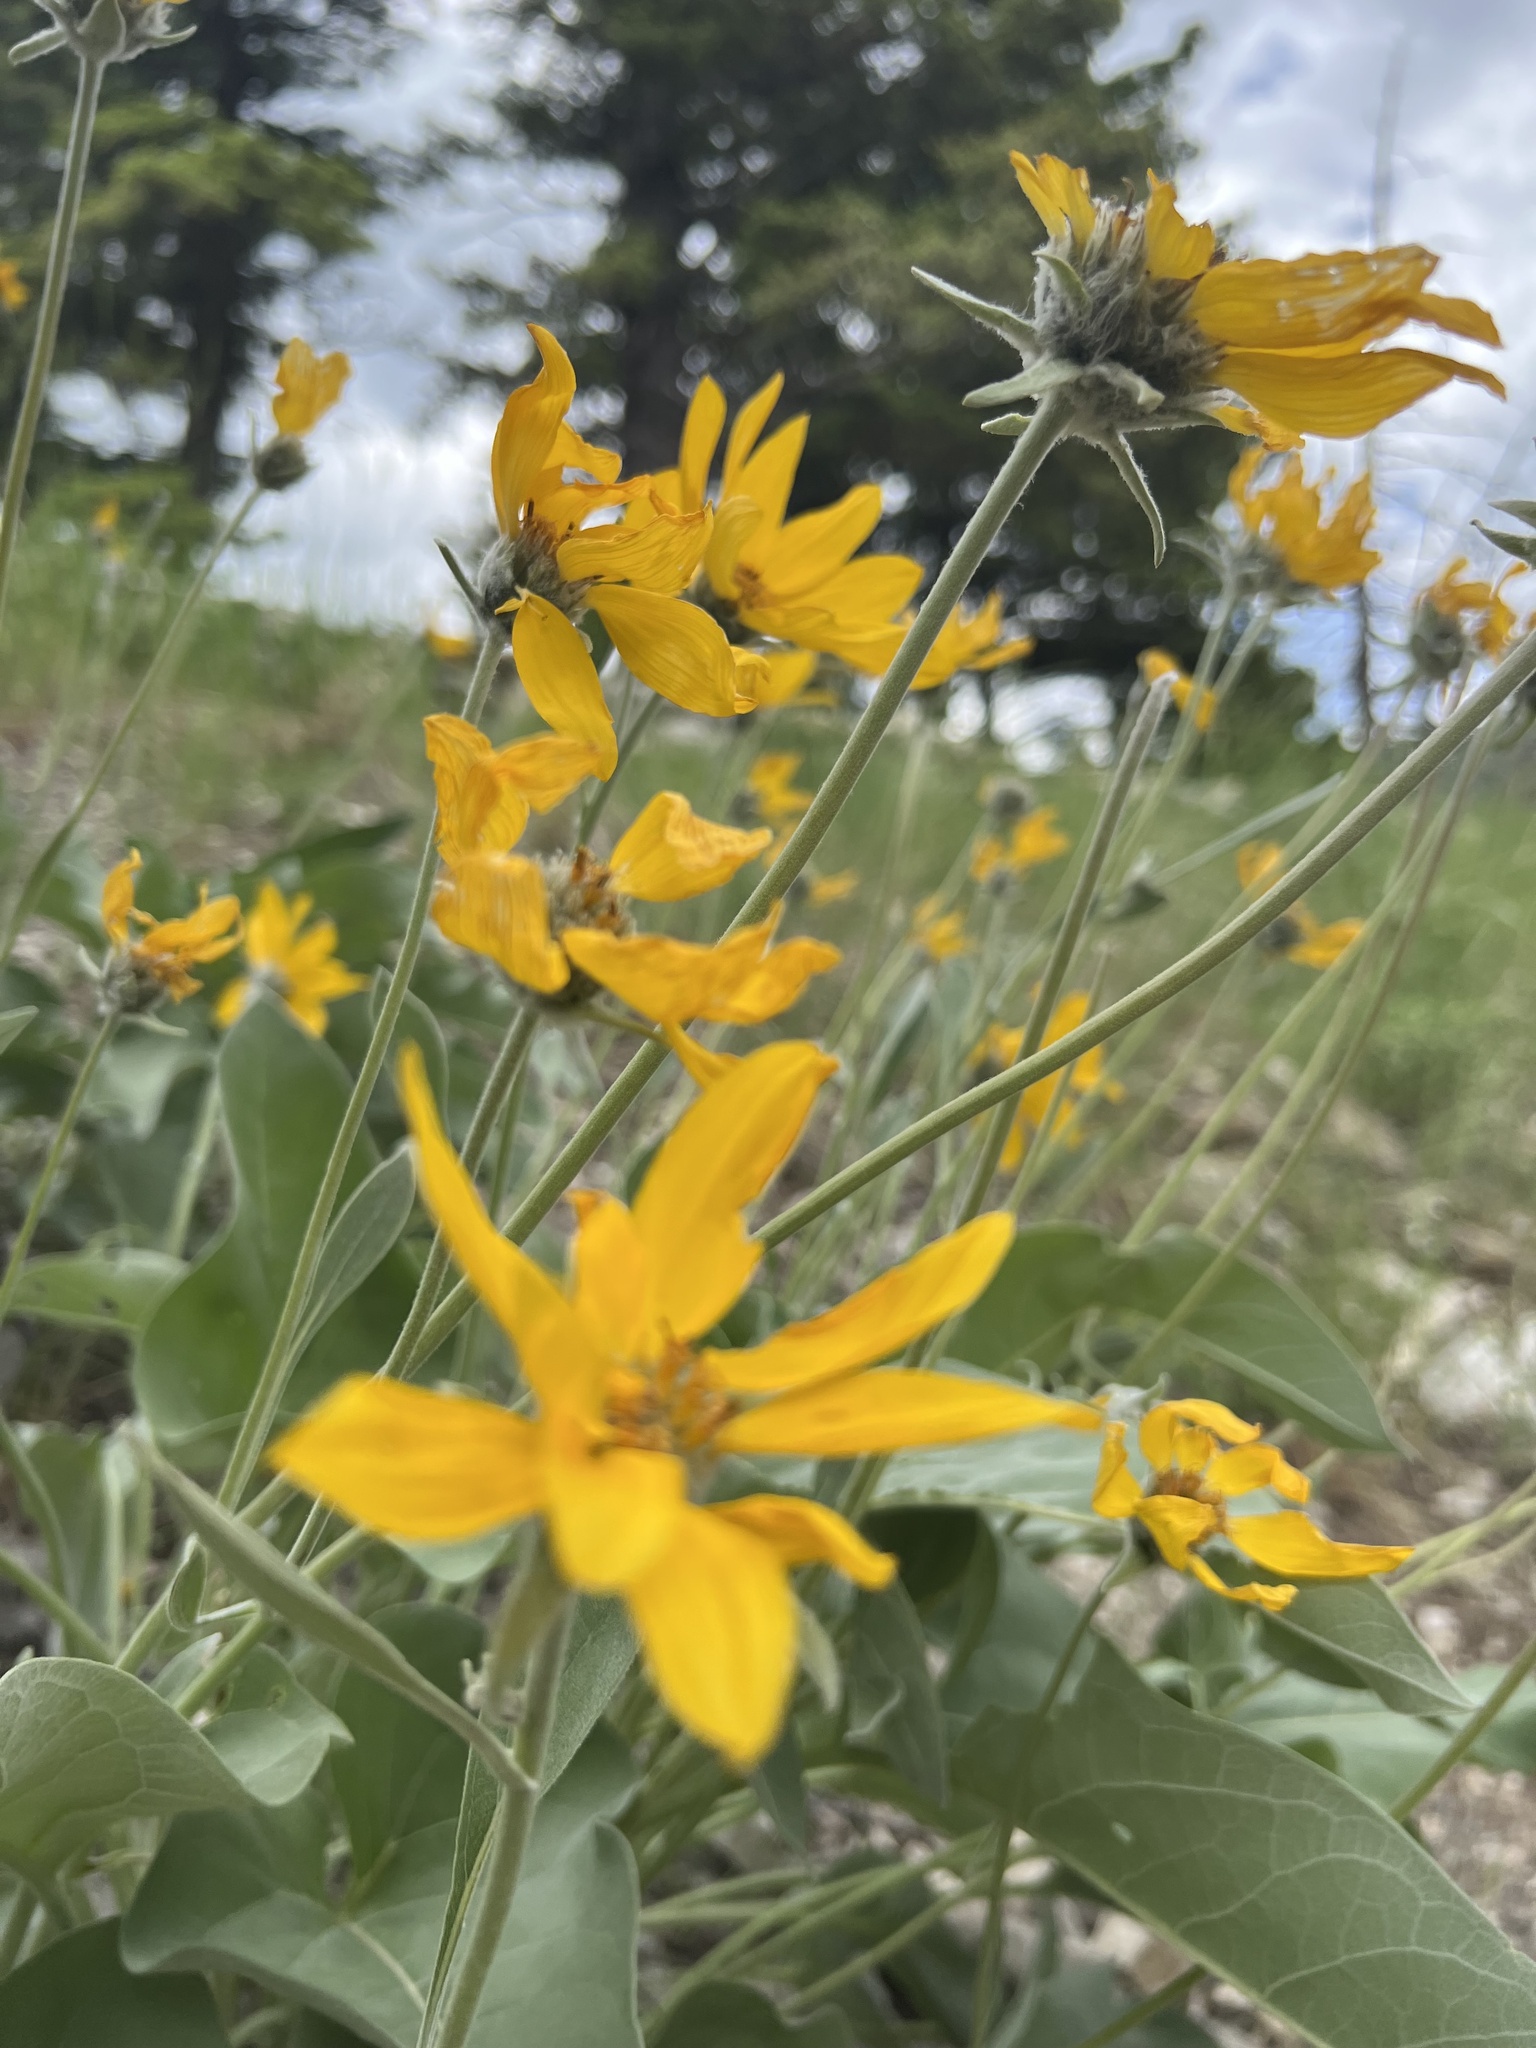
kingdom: Plantae
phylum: Tracheophyta
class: Magnoliopsida
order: Asterales
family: Asteraceae
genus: Wyethia
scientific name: Wyethia sagittata
